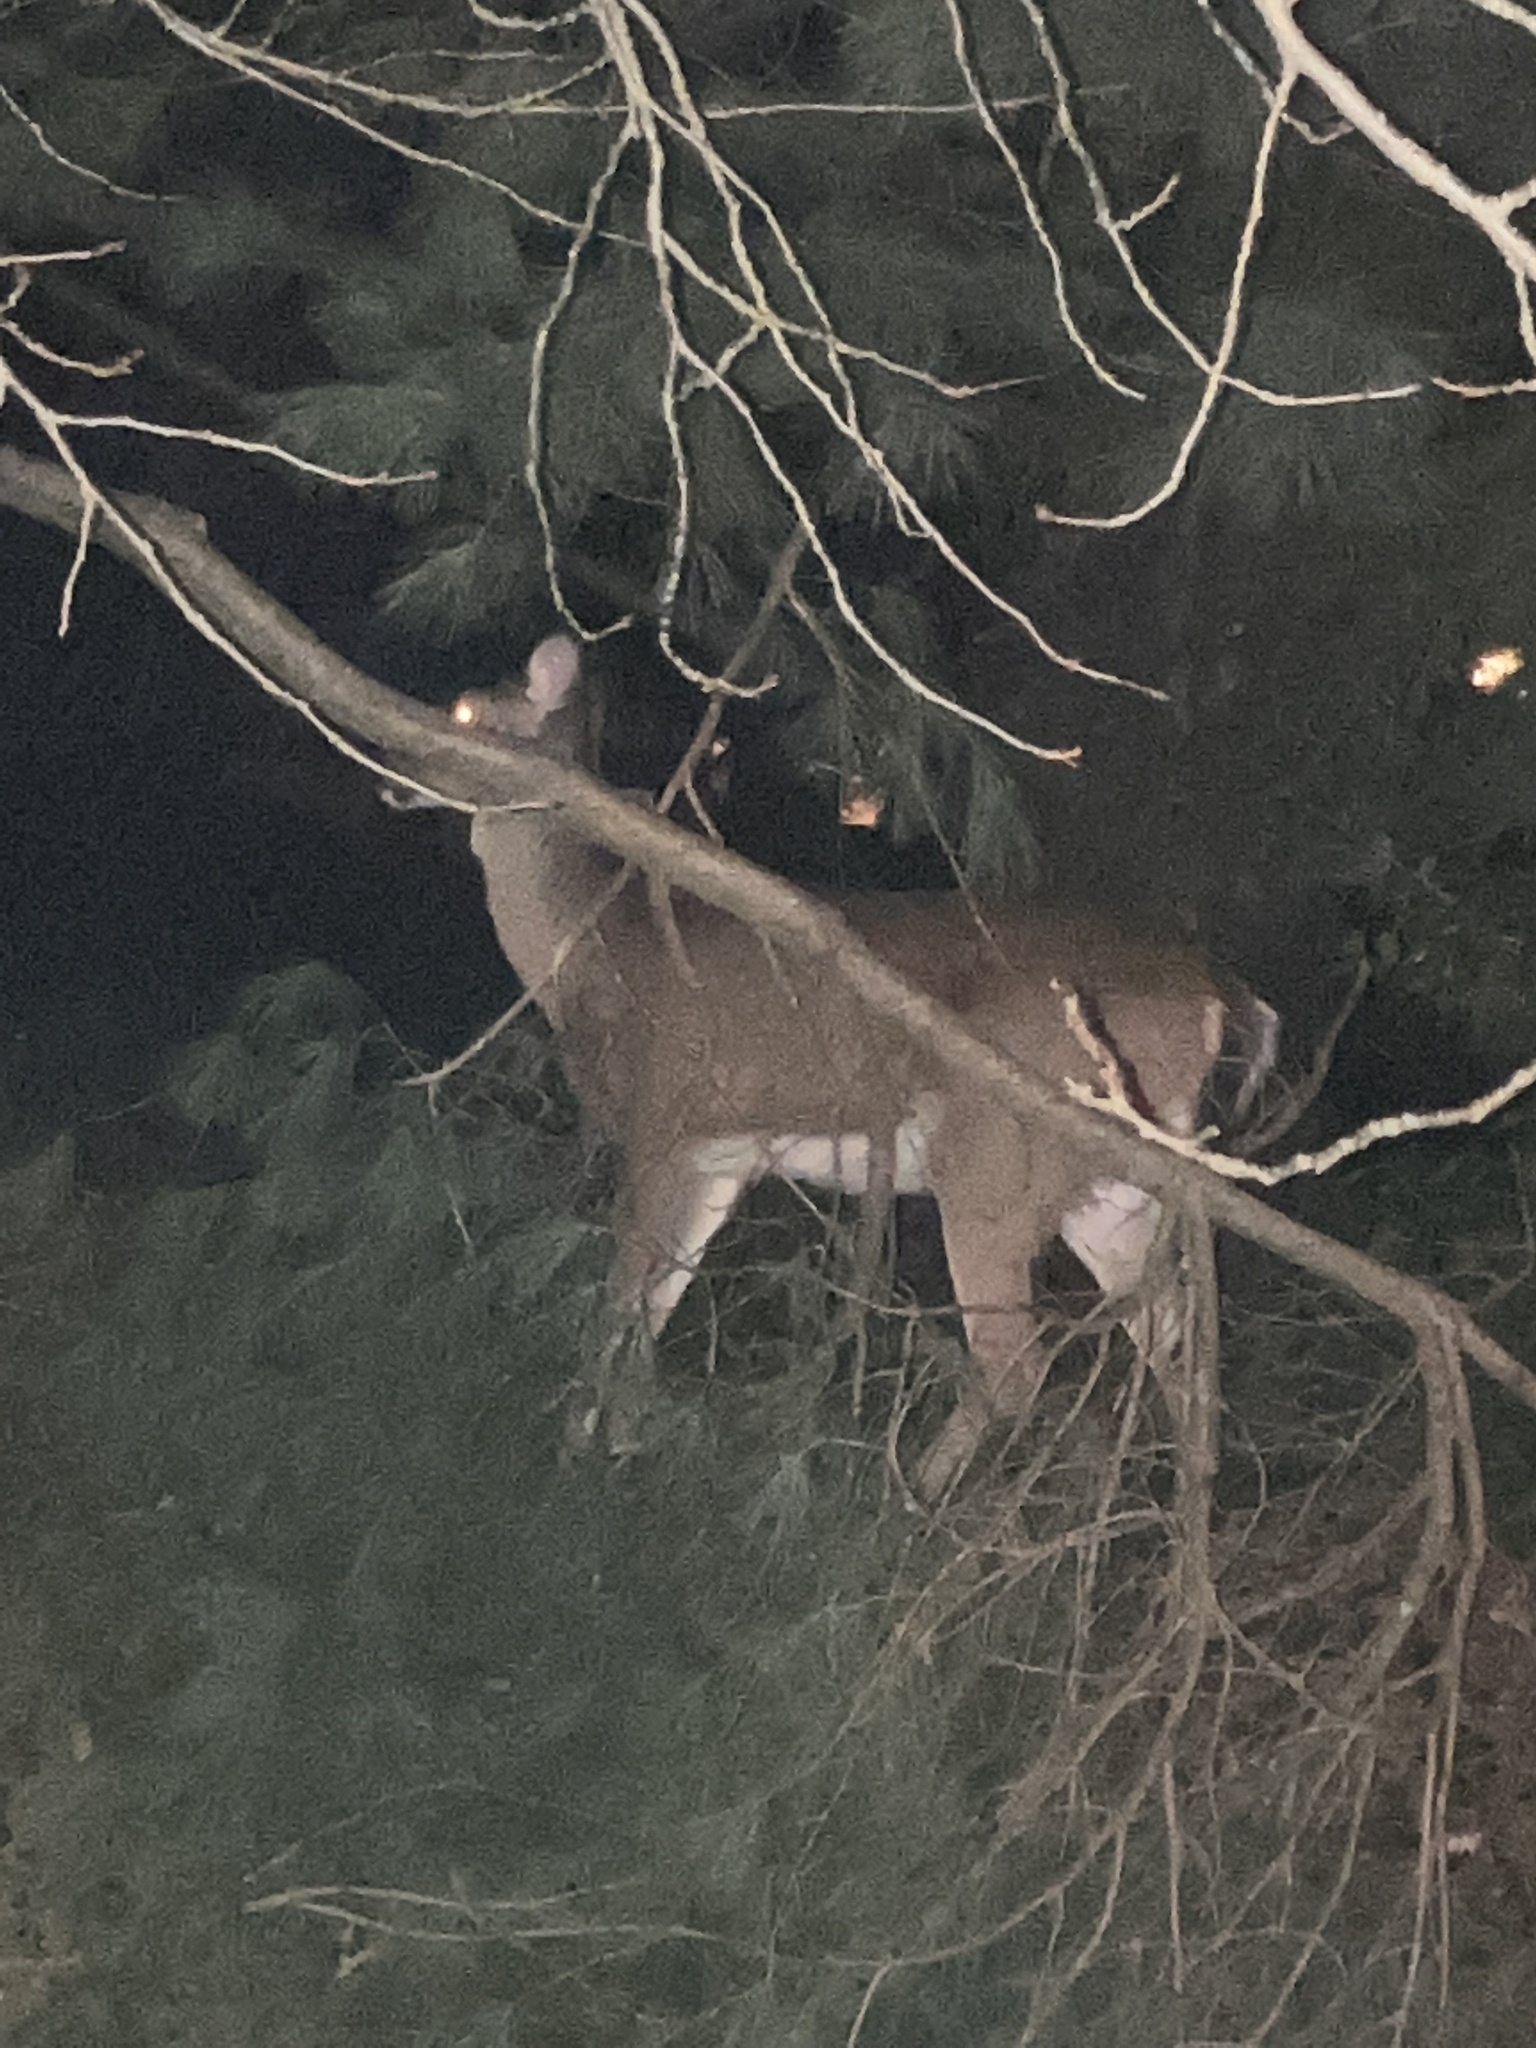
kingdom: Animalia
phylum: Chordata
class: Mammalia
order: Artiodactyla
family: Cervidae
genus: Odocoileus
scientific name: Odocoileus virginianus
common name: White-tailed deer
